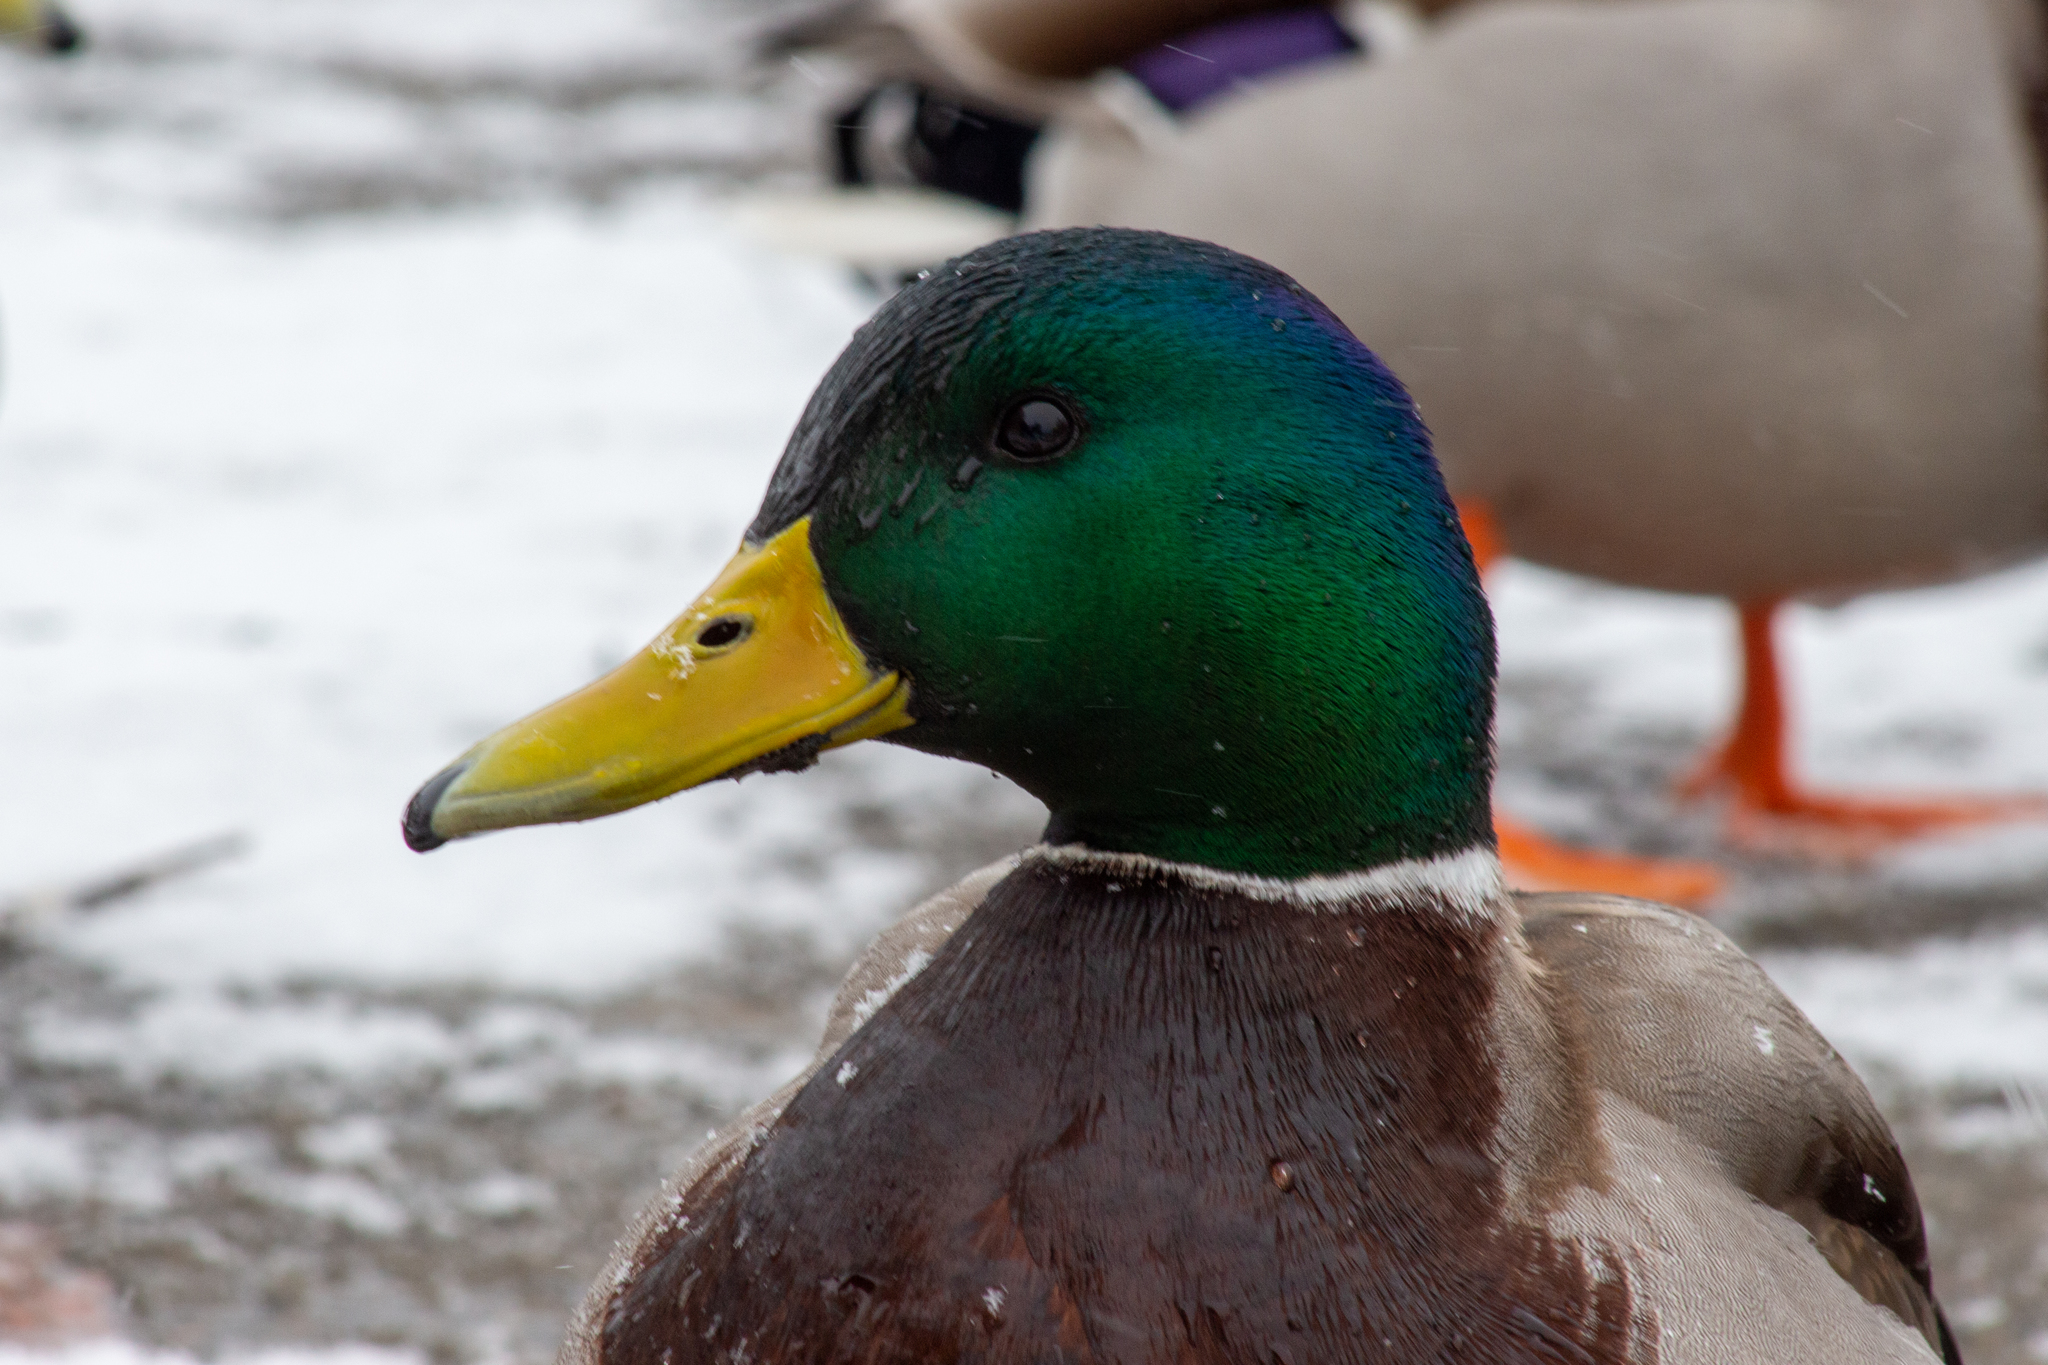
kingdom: Animalia
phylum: Chordata
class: Aves
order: Anseriformes
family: Anatidae
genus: Anas
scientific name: Anas platyrhynchos
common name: Mallard
